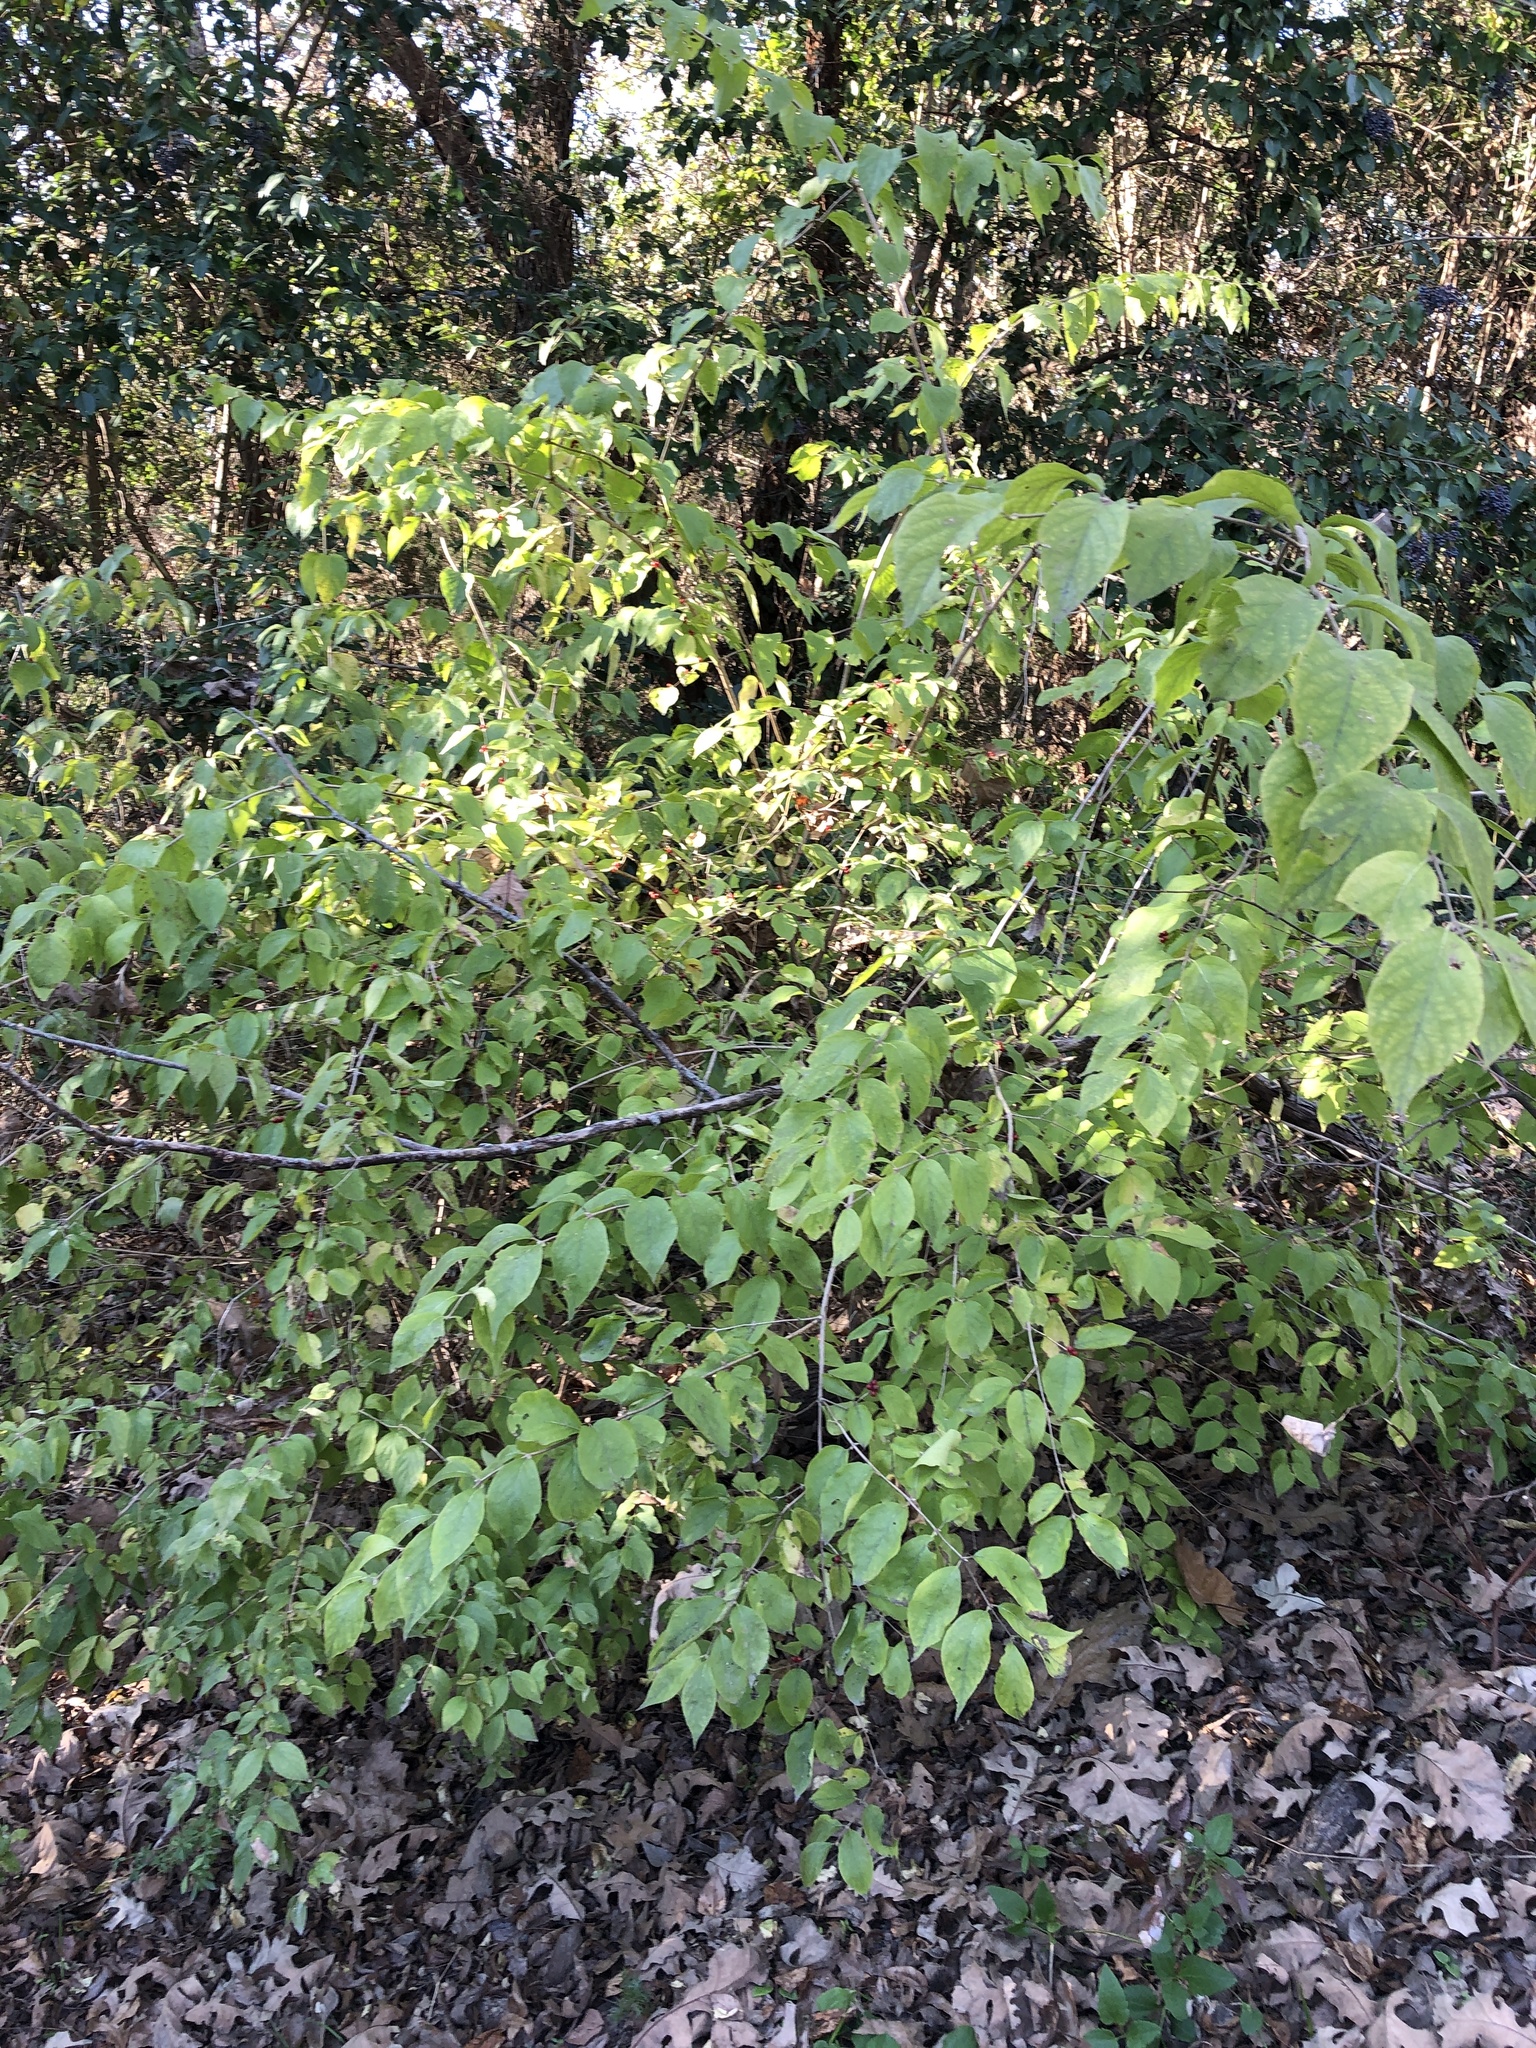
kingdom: Plantae
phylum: Tracheophyta
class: Magnoliopsida
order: Dipsacales
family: Caprifoliaceae
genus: Lonicera
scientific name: Lonicera maackii
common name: Amur honeysuckle
